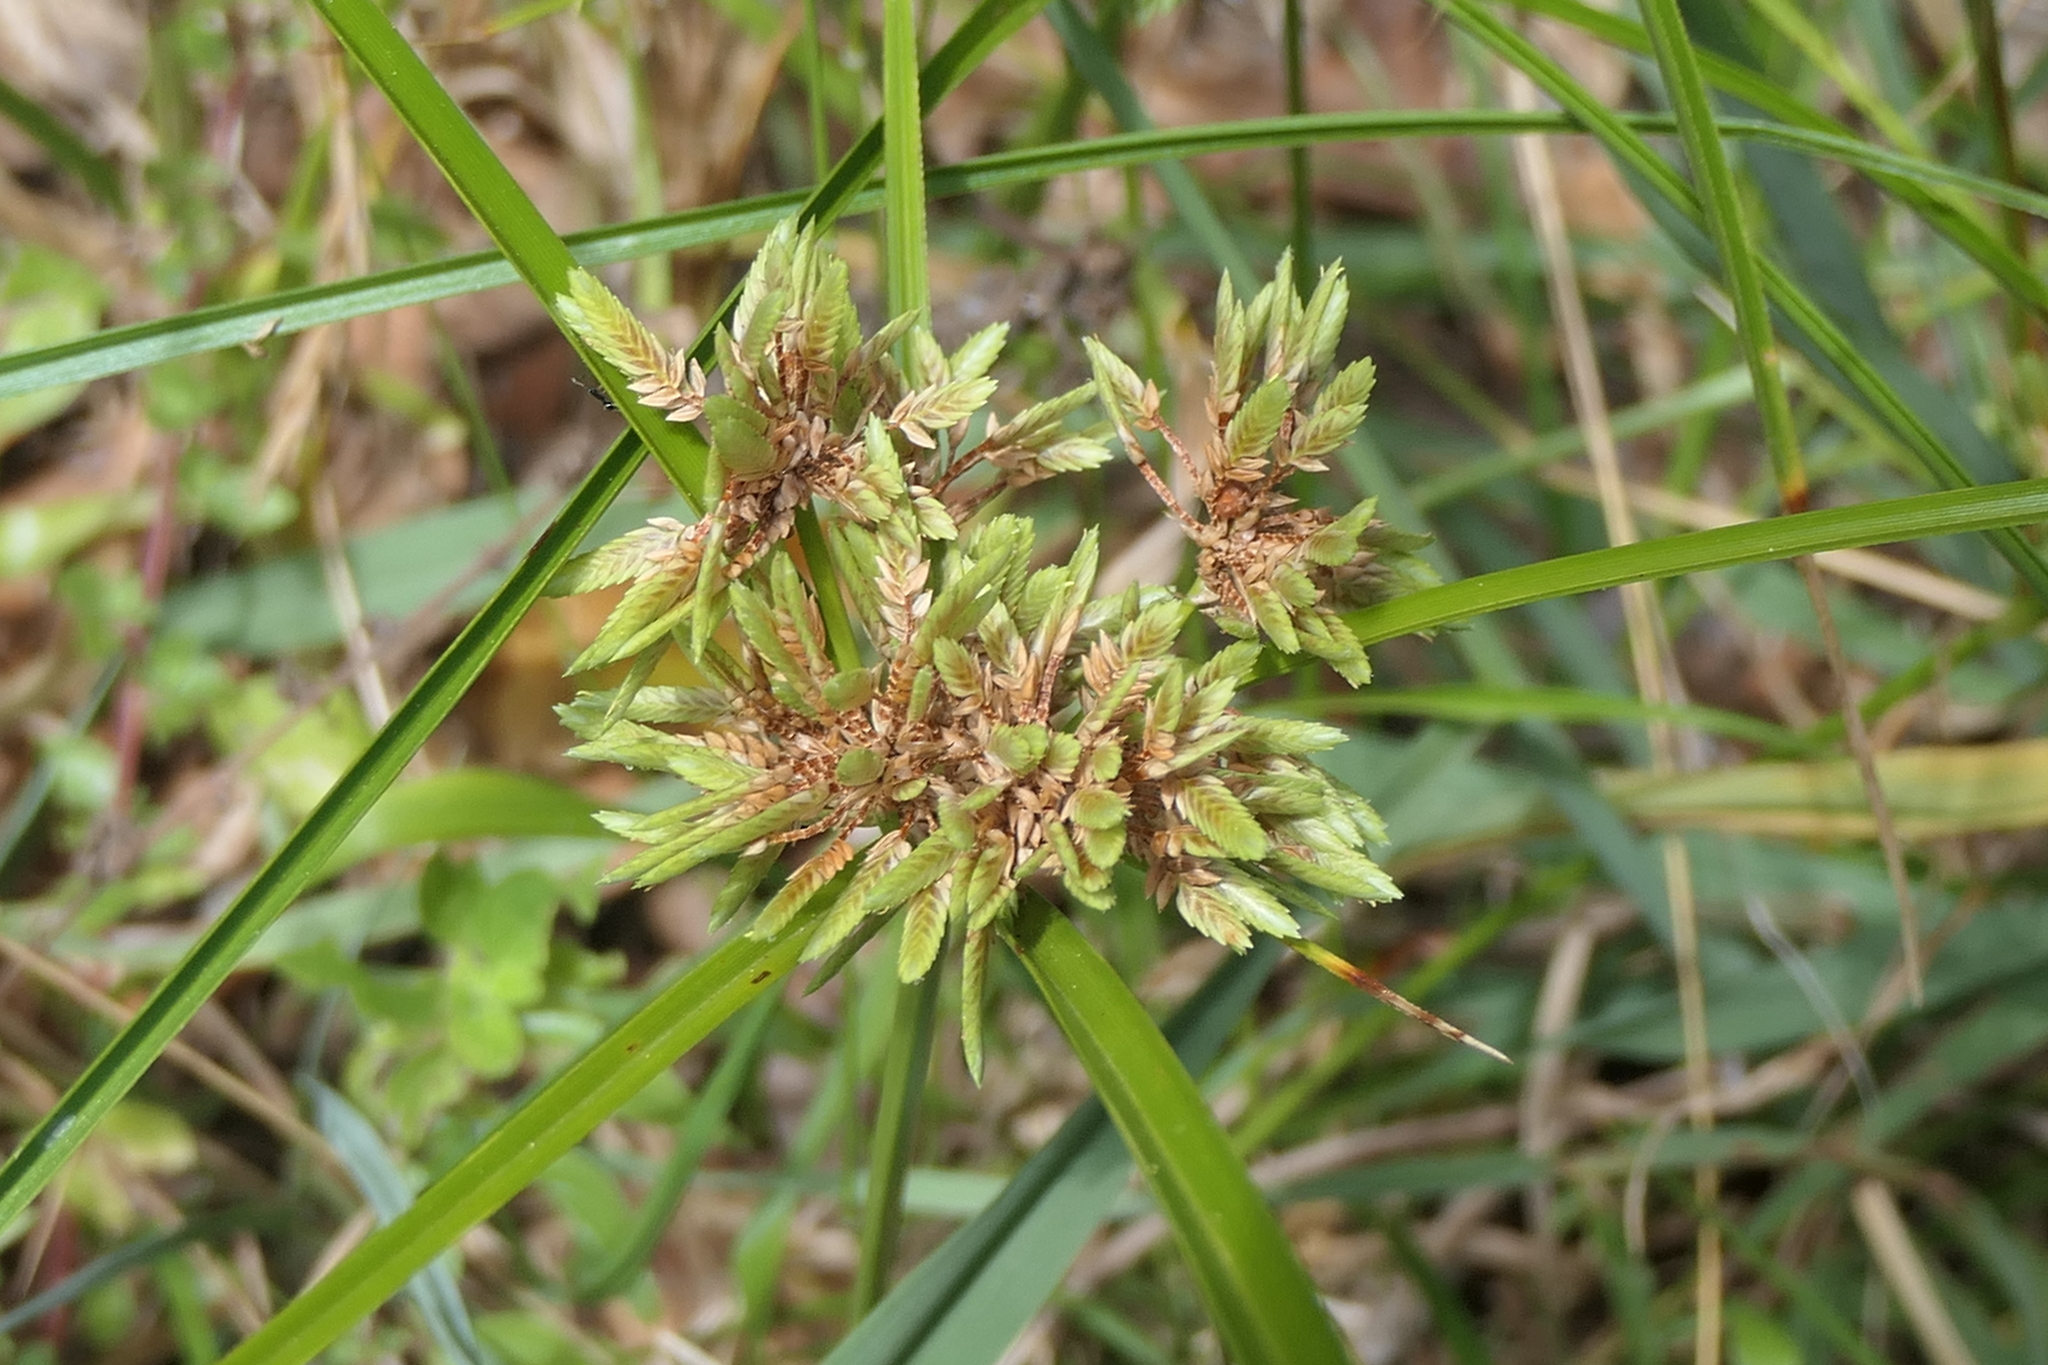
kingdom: Plantae
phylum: Tracheophyta
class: Liliopsida
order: Poales
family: Cyperaceae
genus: Cyperus
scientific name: Cyperus eragrostis
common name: Tall flatsedge
